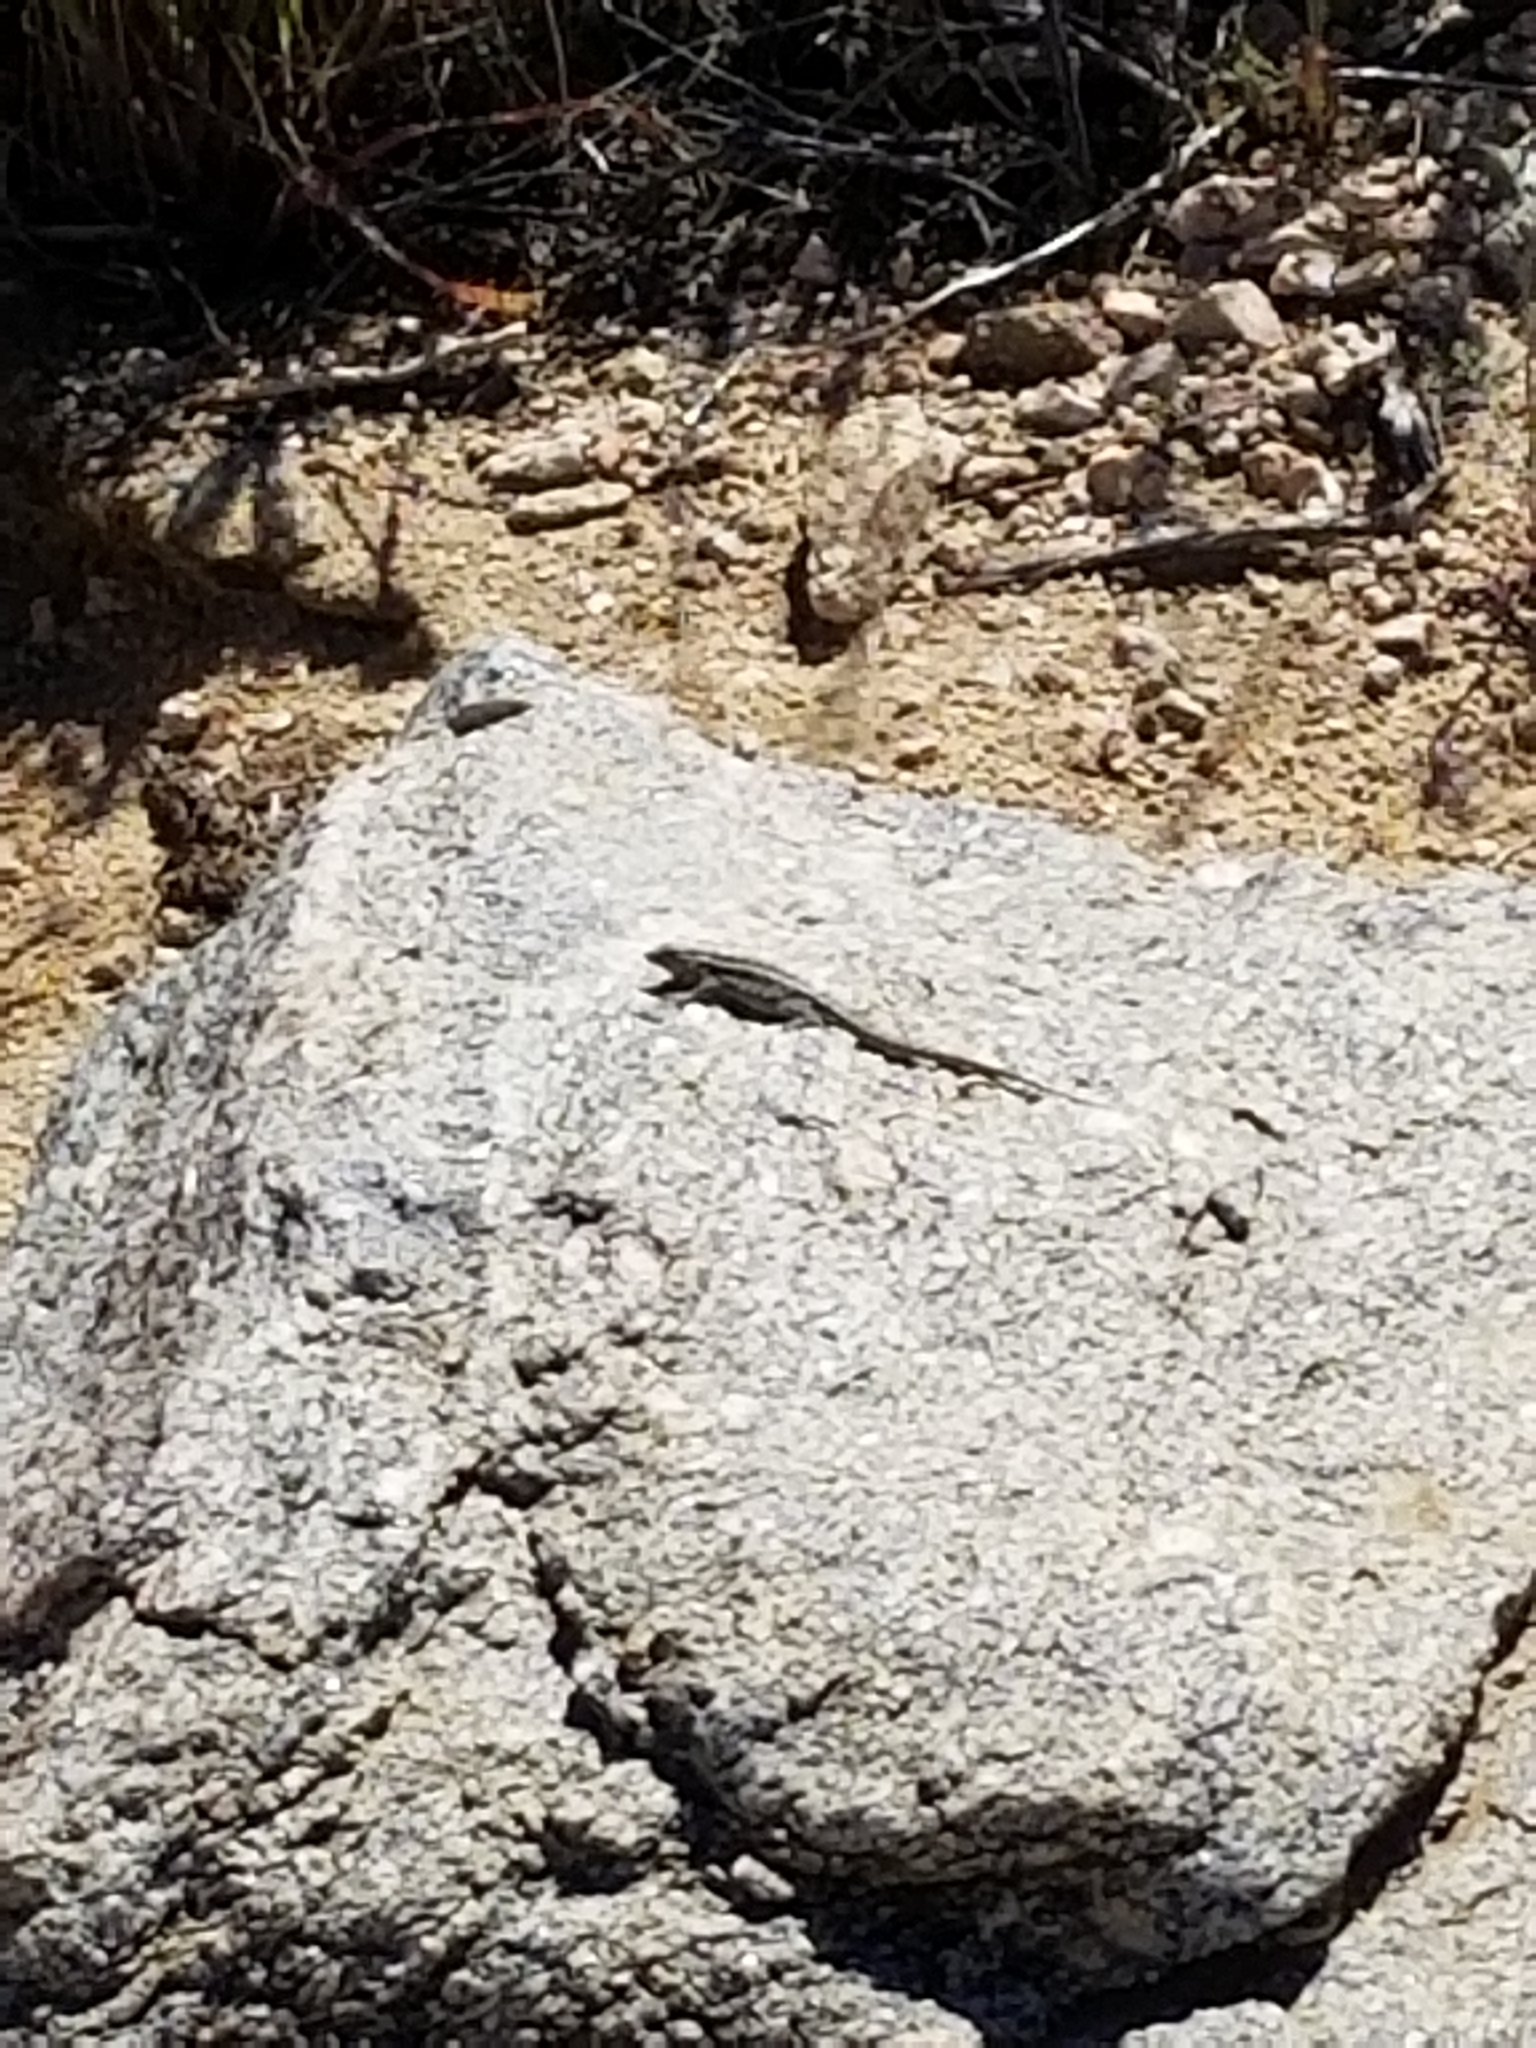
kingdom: Animalia
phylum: Chordata
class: Squamata
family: Phrynosomatidae
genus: Uta
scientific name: Uta stansburiana
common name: Side-blotched lizard
